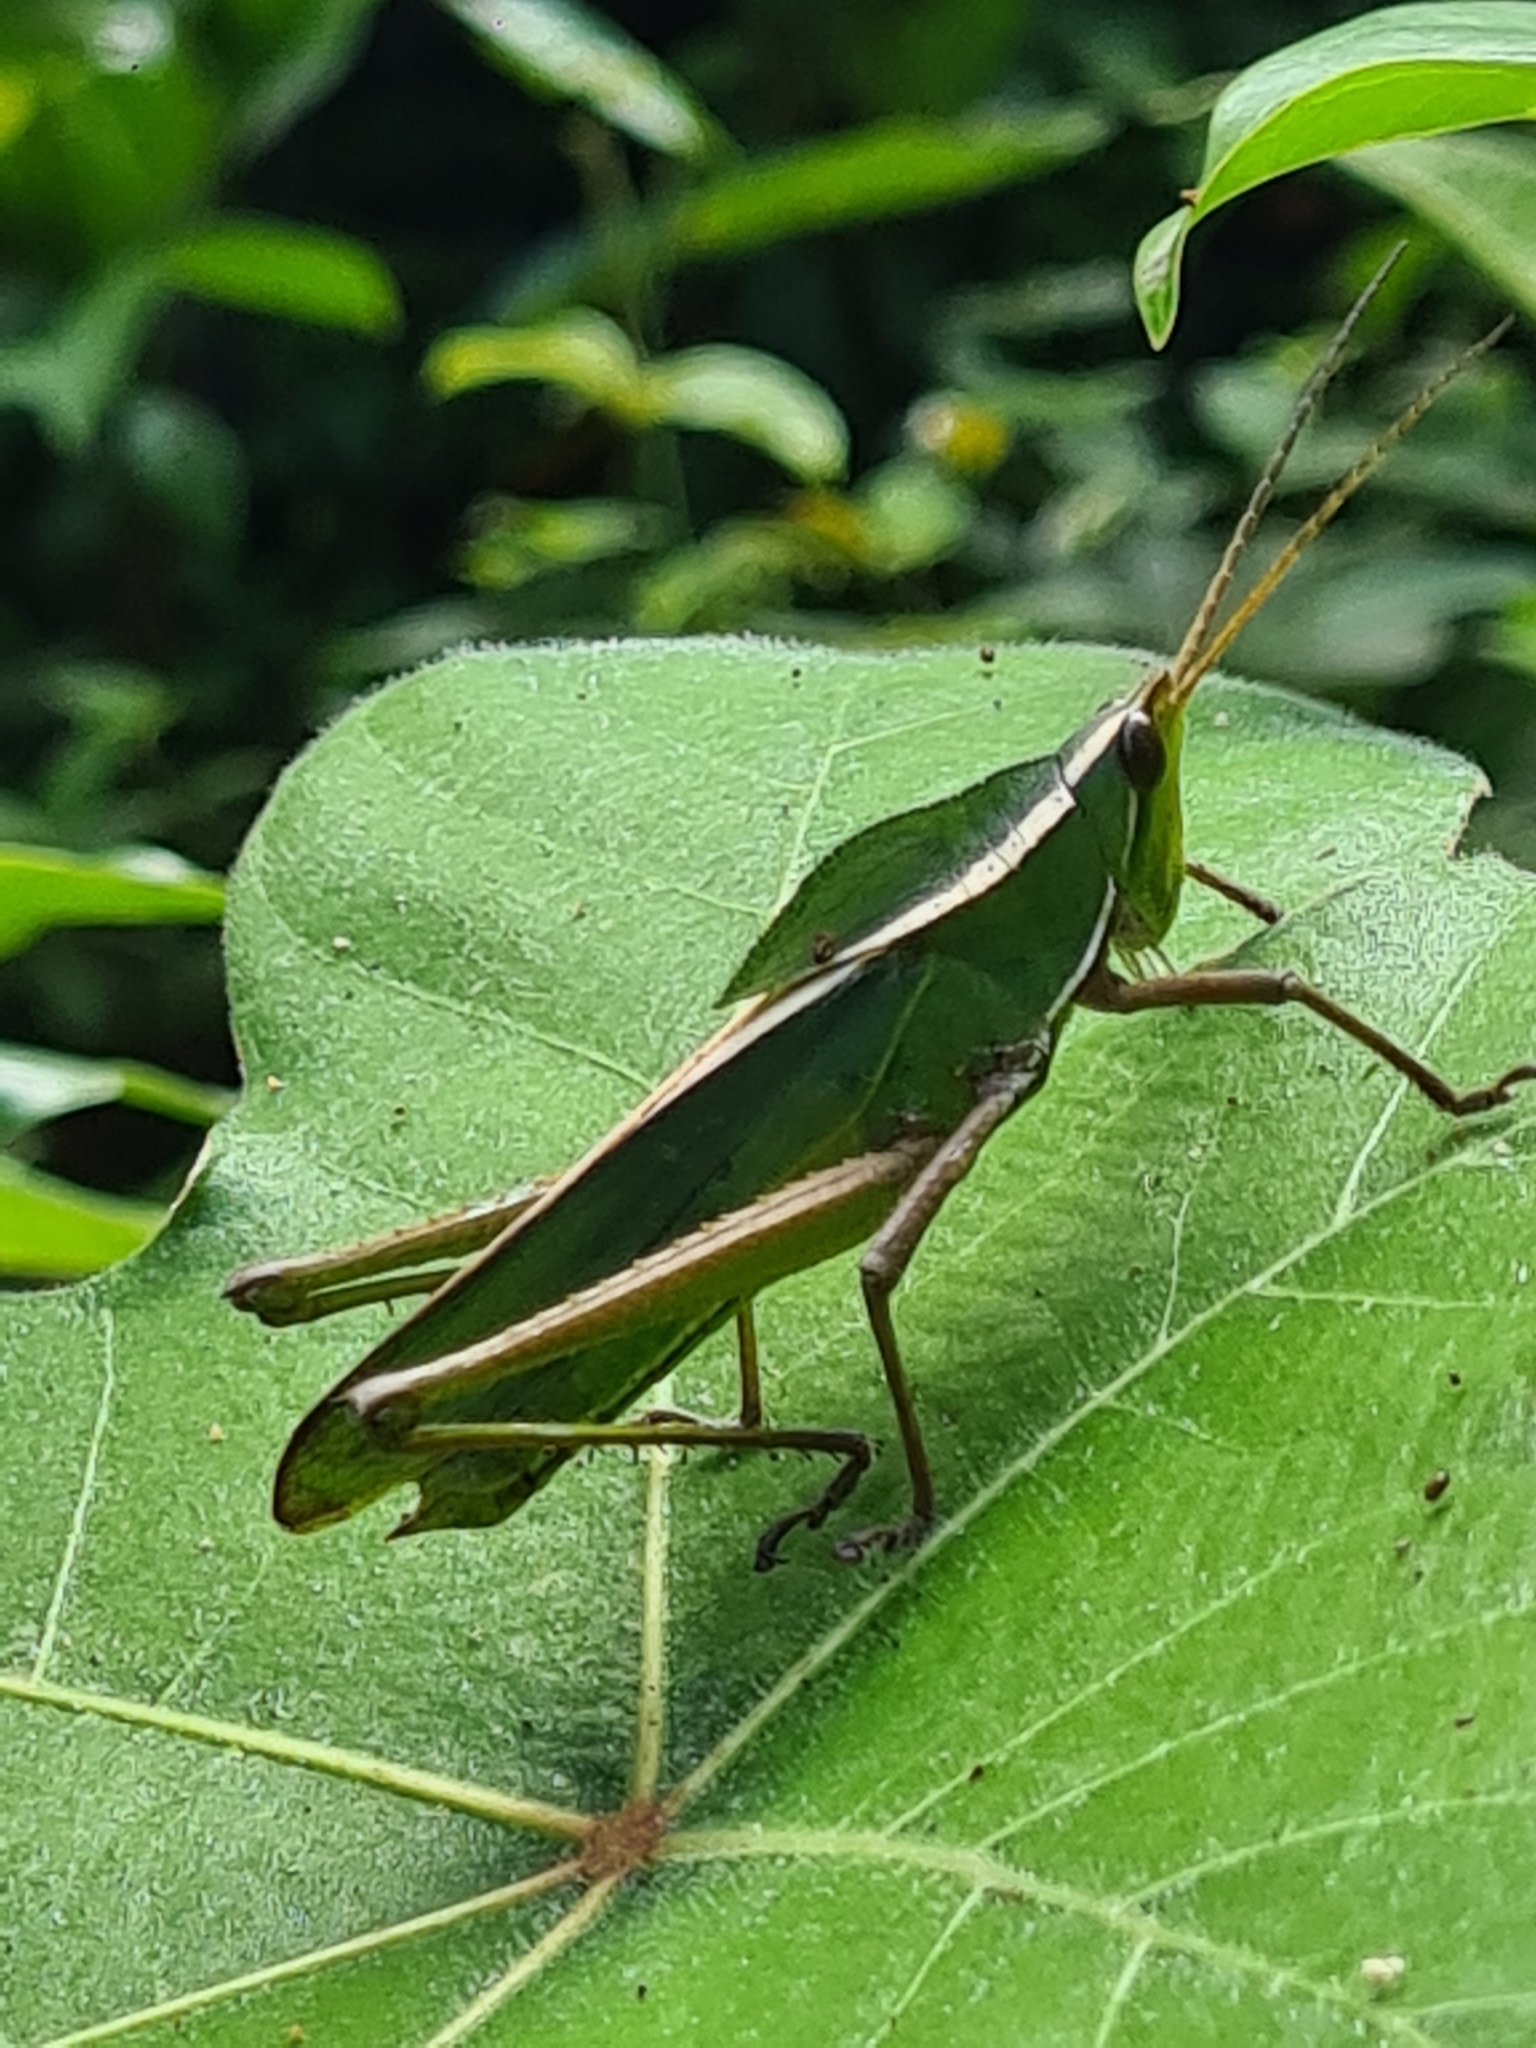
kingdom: Animalia
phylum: Arthropoda
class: Insecta
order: Orthoptera
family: Romaleidae
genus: Prionolopha
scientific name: Prionolopha serrata
